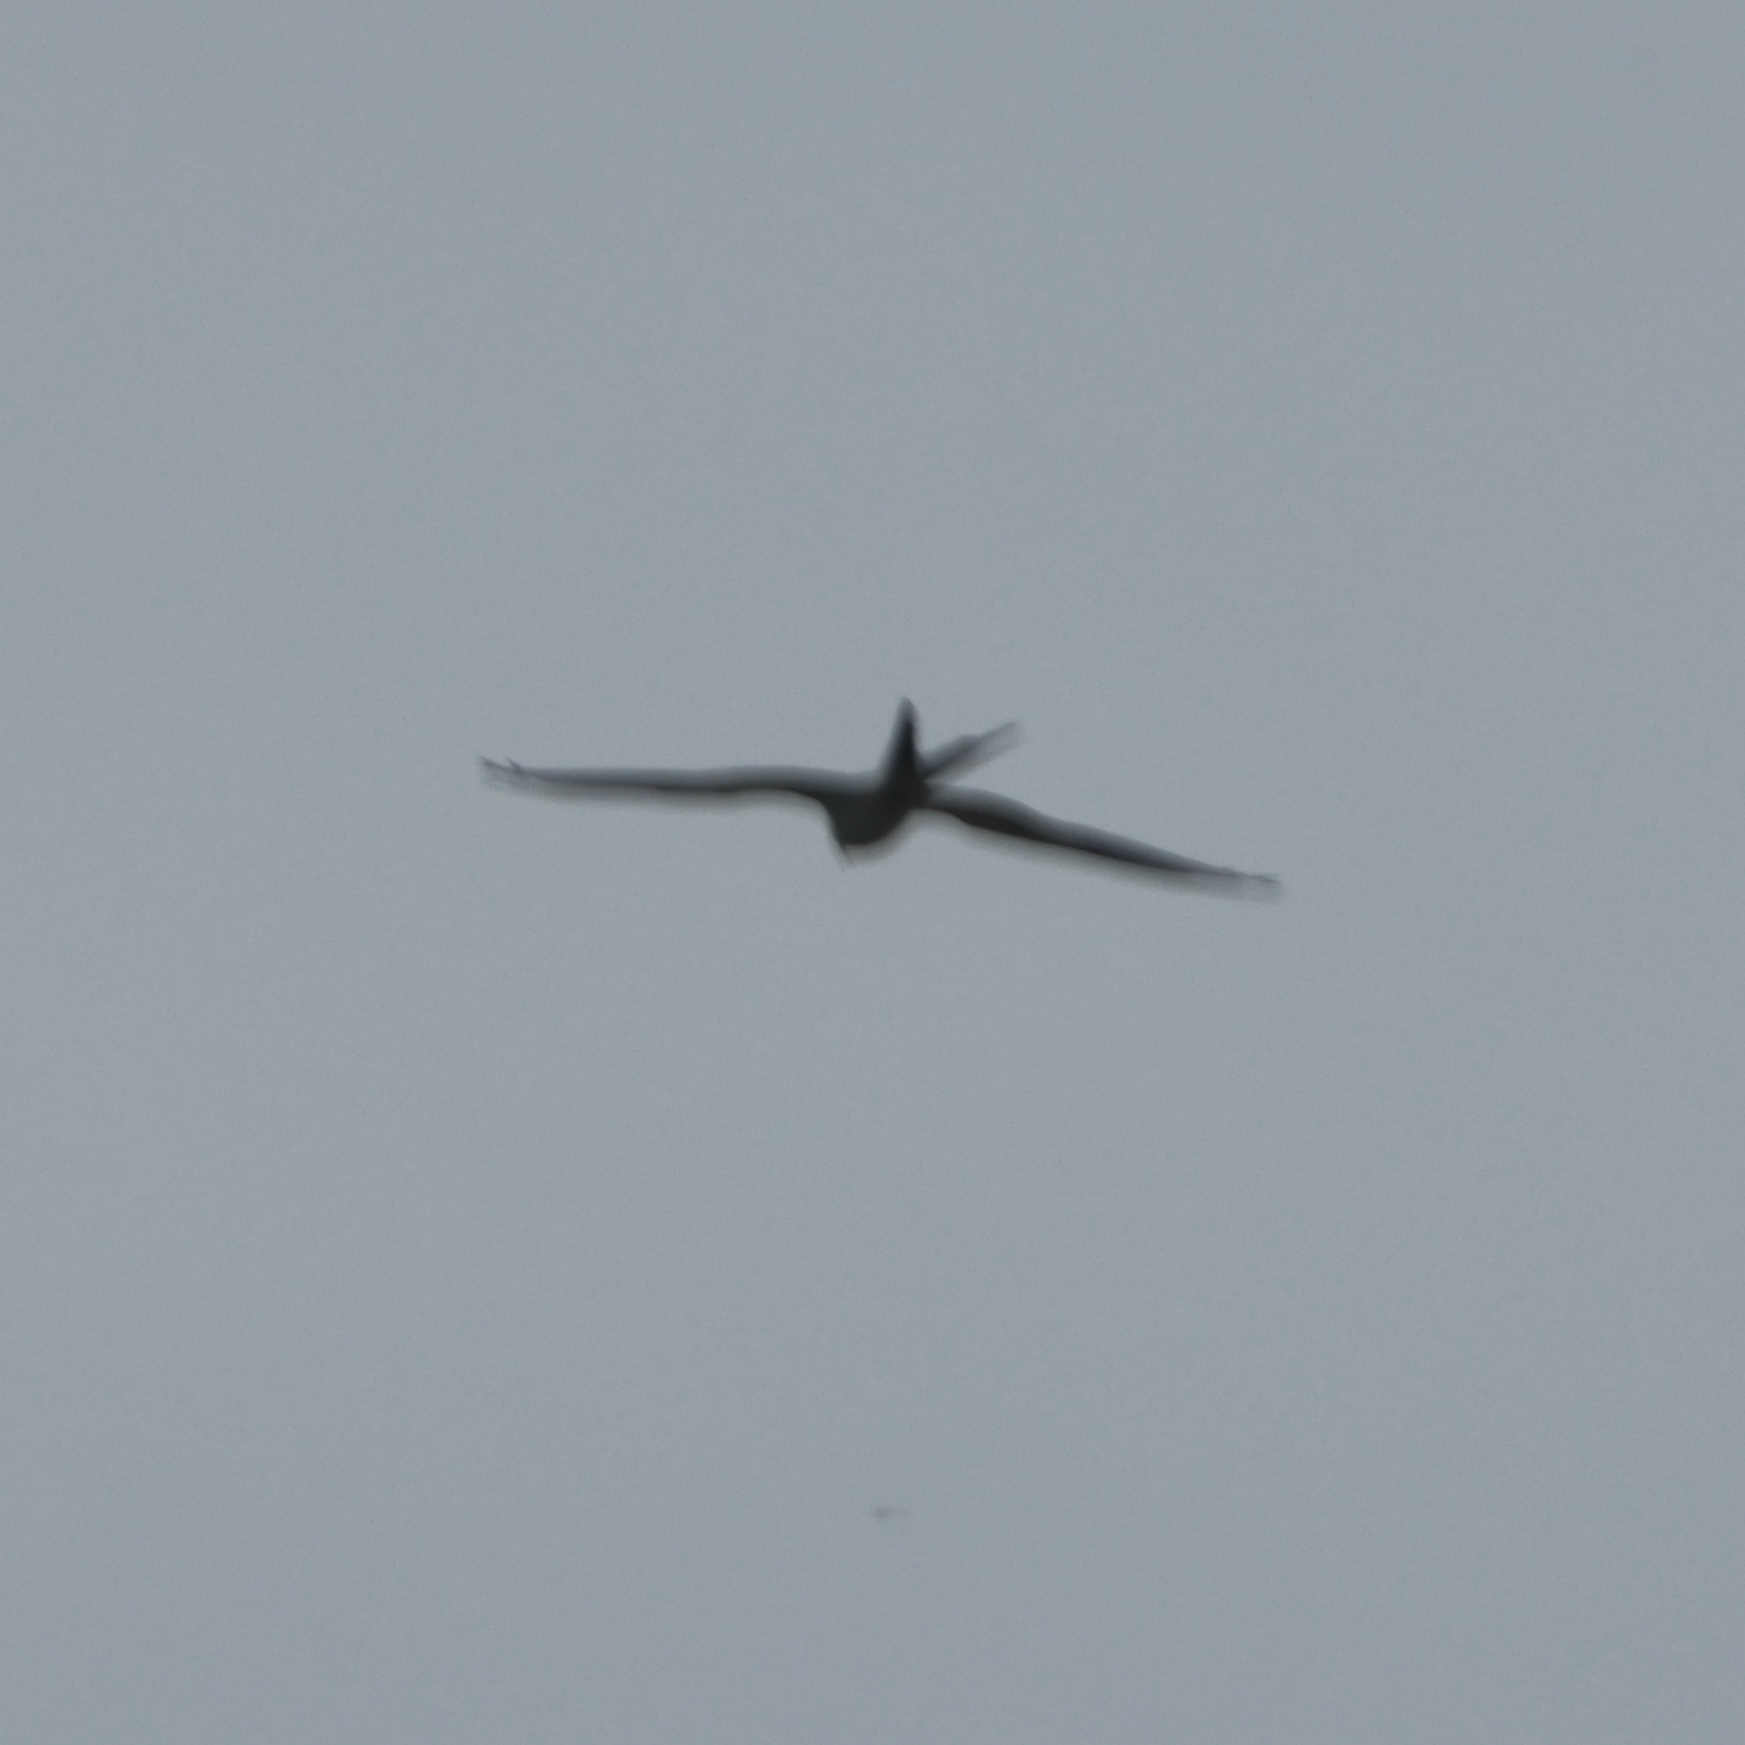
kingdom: Animalia
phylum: Chordata
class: Aves
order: Accipitriformes
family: Accipitridae
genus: Elanoides
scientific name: Elanoides forficatus
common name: Swallow-tailed kite
